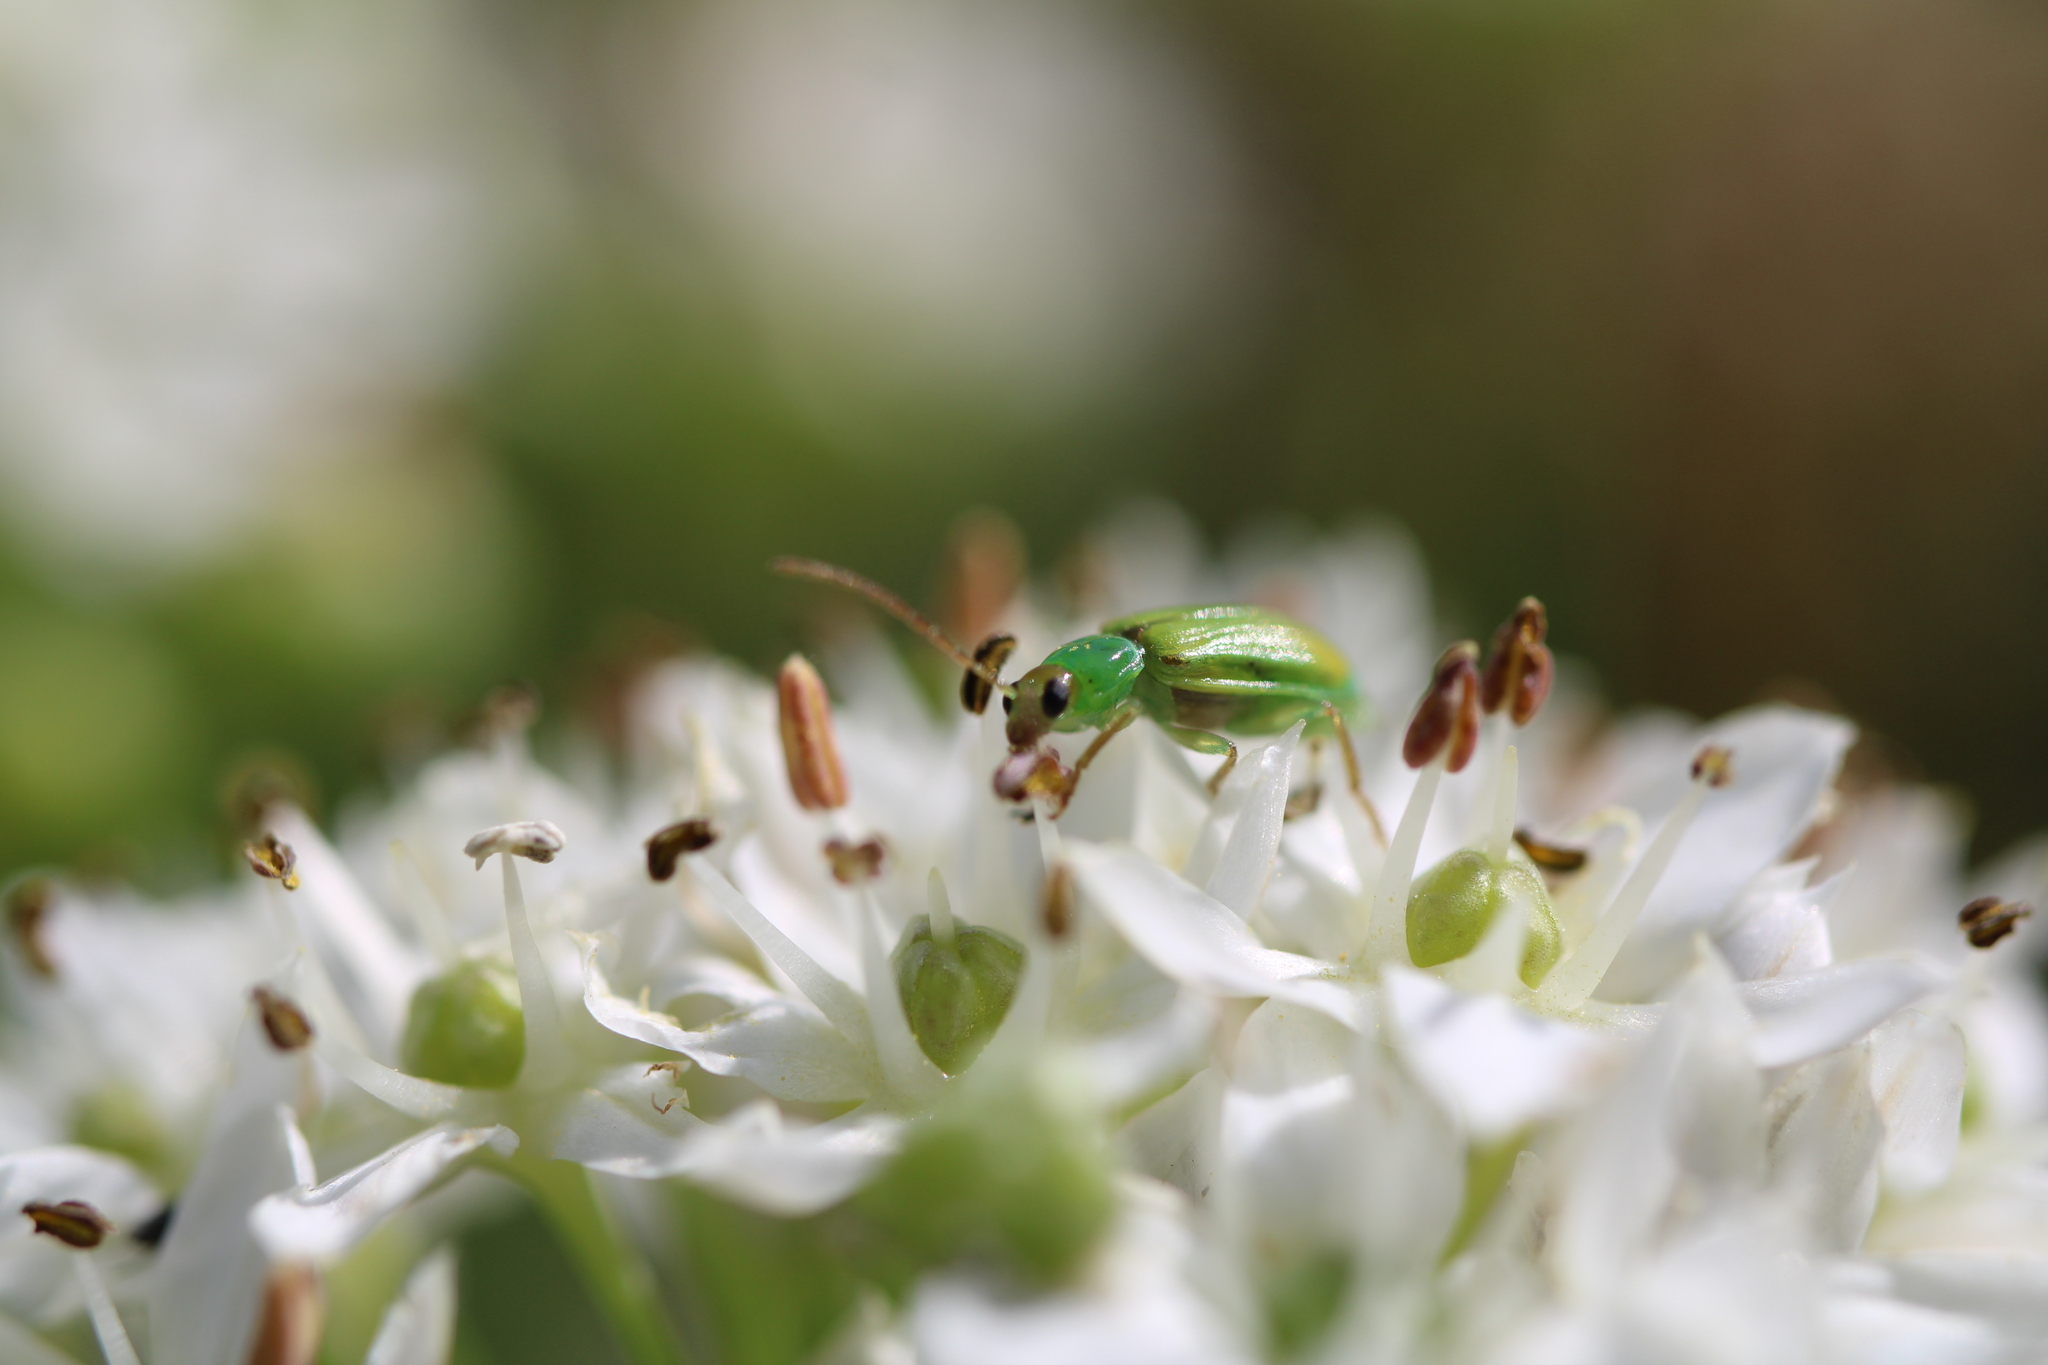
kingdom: Animalia
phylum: Arthropoda
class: Insecta
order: Coleoptera
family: Chrysomelidae
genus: Diabrotica
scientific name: Diabrotica barberi
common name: Northern corn rootworm
